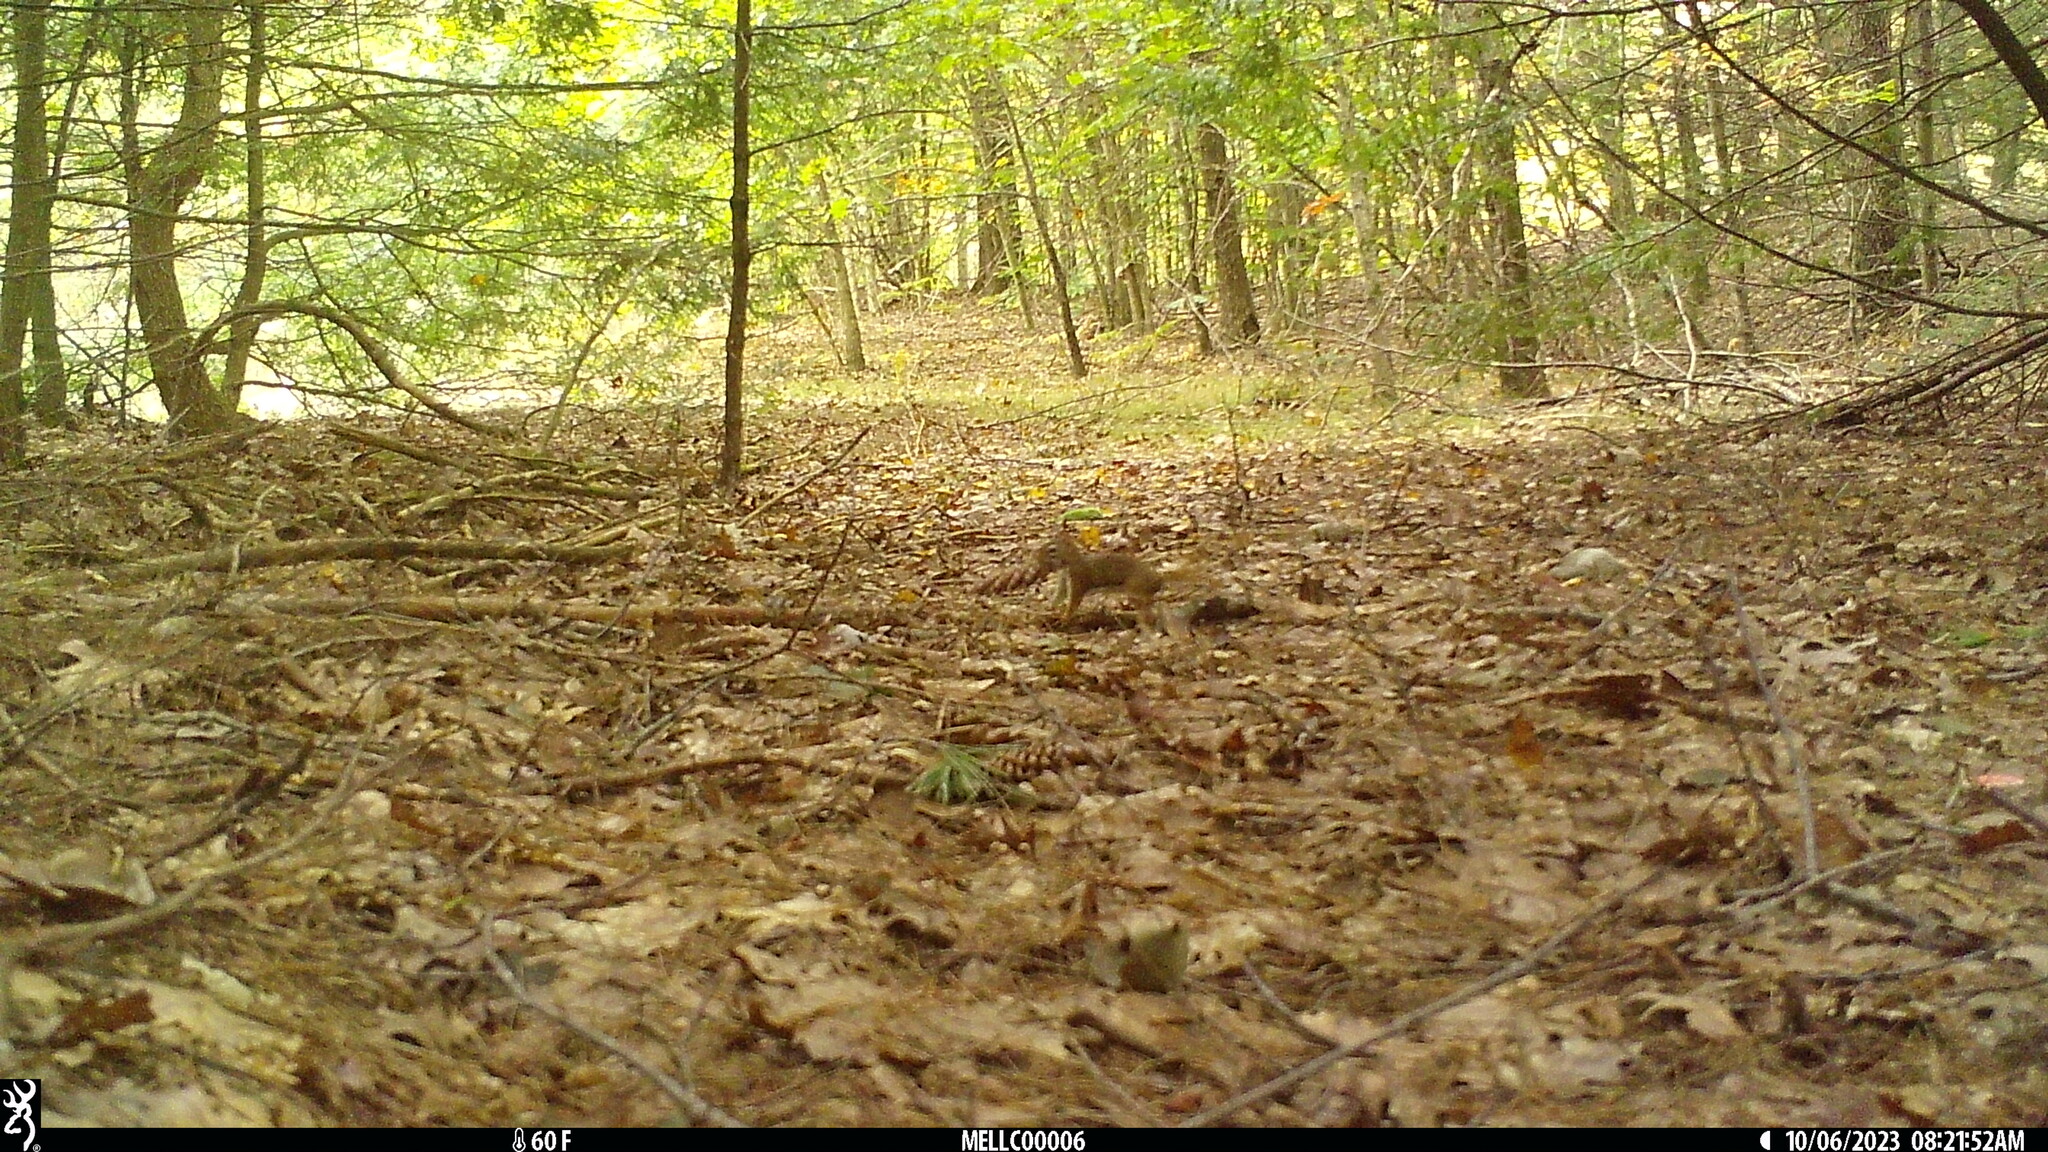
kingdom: Animalia
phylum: Chordata
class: Mammalia
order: Rodentia
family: Sciuridae
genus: Tamiasciurus
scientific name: Tamiasciurus hudsonicus
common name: Red squirrel
